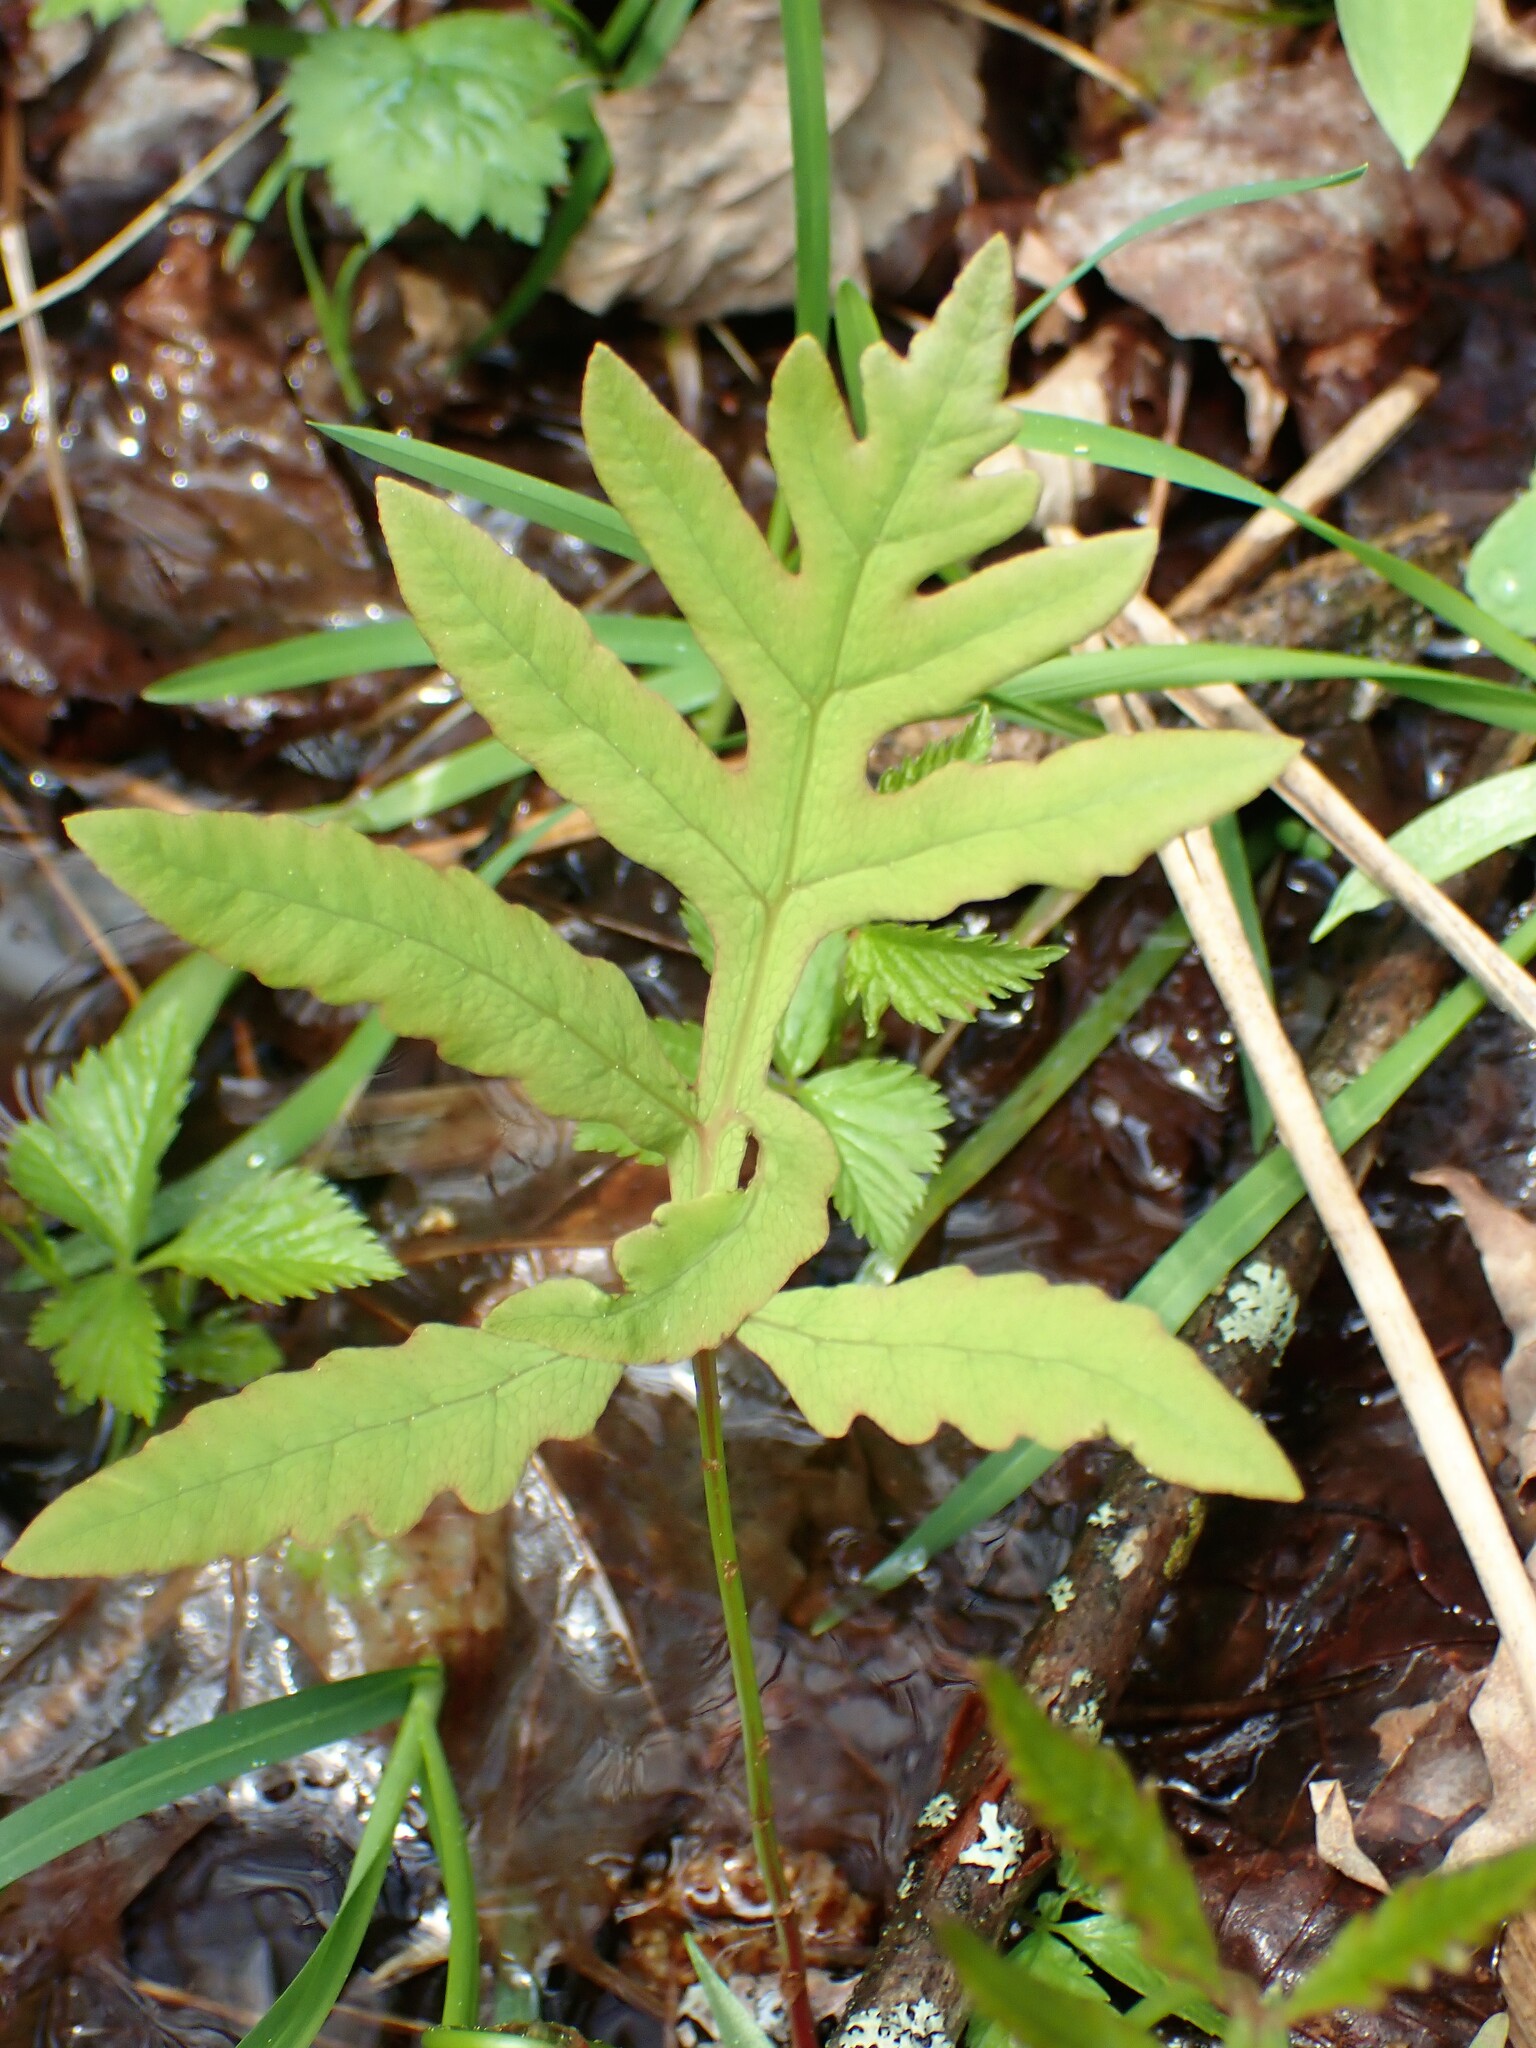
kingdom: Plantae
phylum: Tracheophyta
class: Polypodiopsida
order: Polypodiales
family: Onocleaceae
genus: Onoclea
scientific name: Onoclea sensibilis
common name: Sensitive fern
